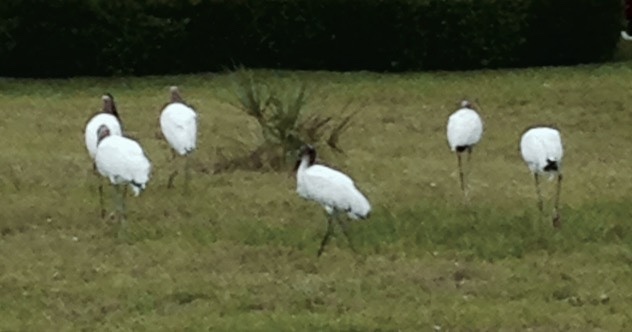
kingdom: Animalia
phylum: Chordata
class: Aves
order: Ciconiiformes
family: Ciconiidae
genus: Mycteria
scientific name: Mycteria americana
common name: Wood stork
